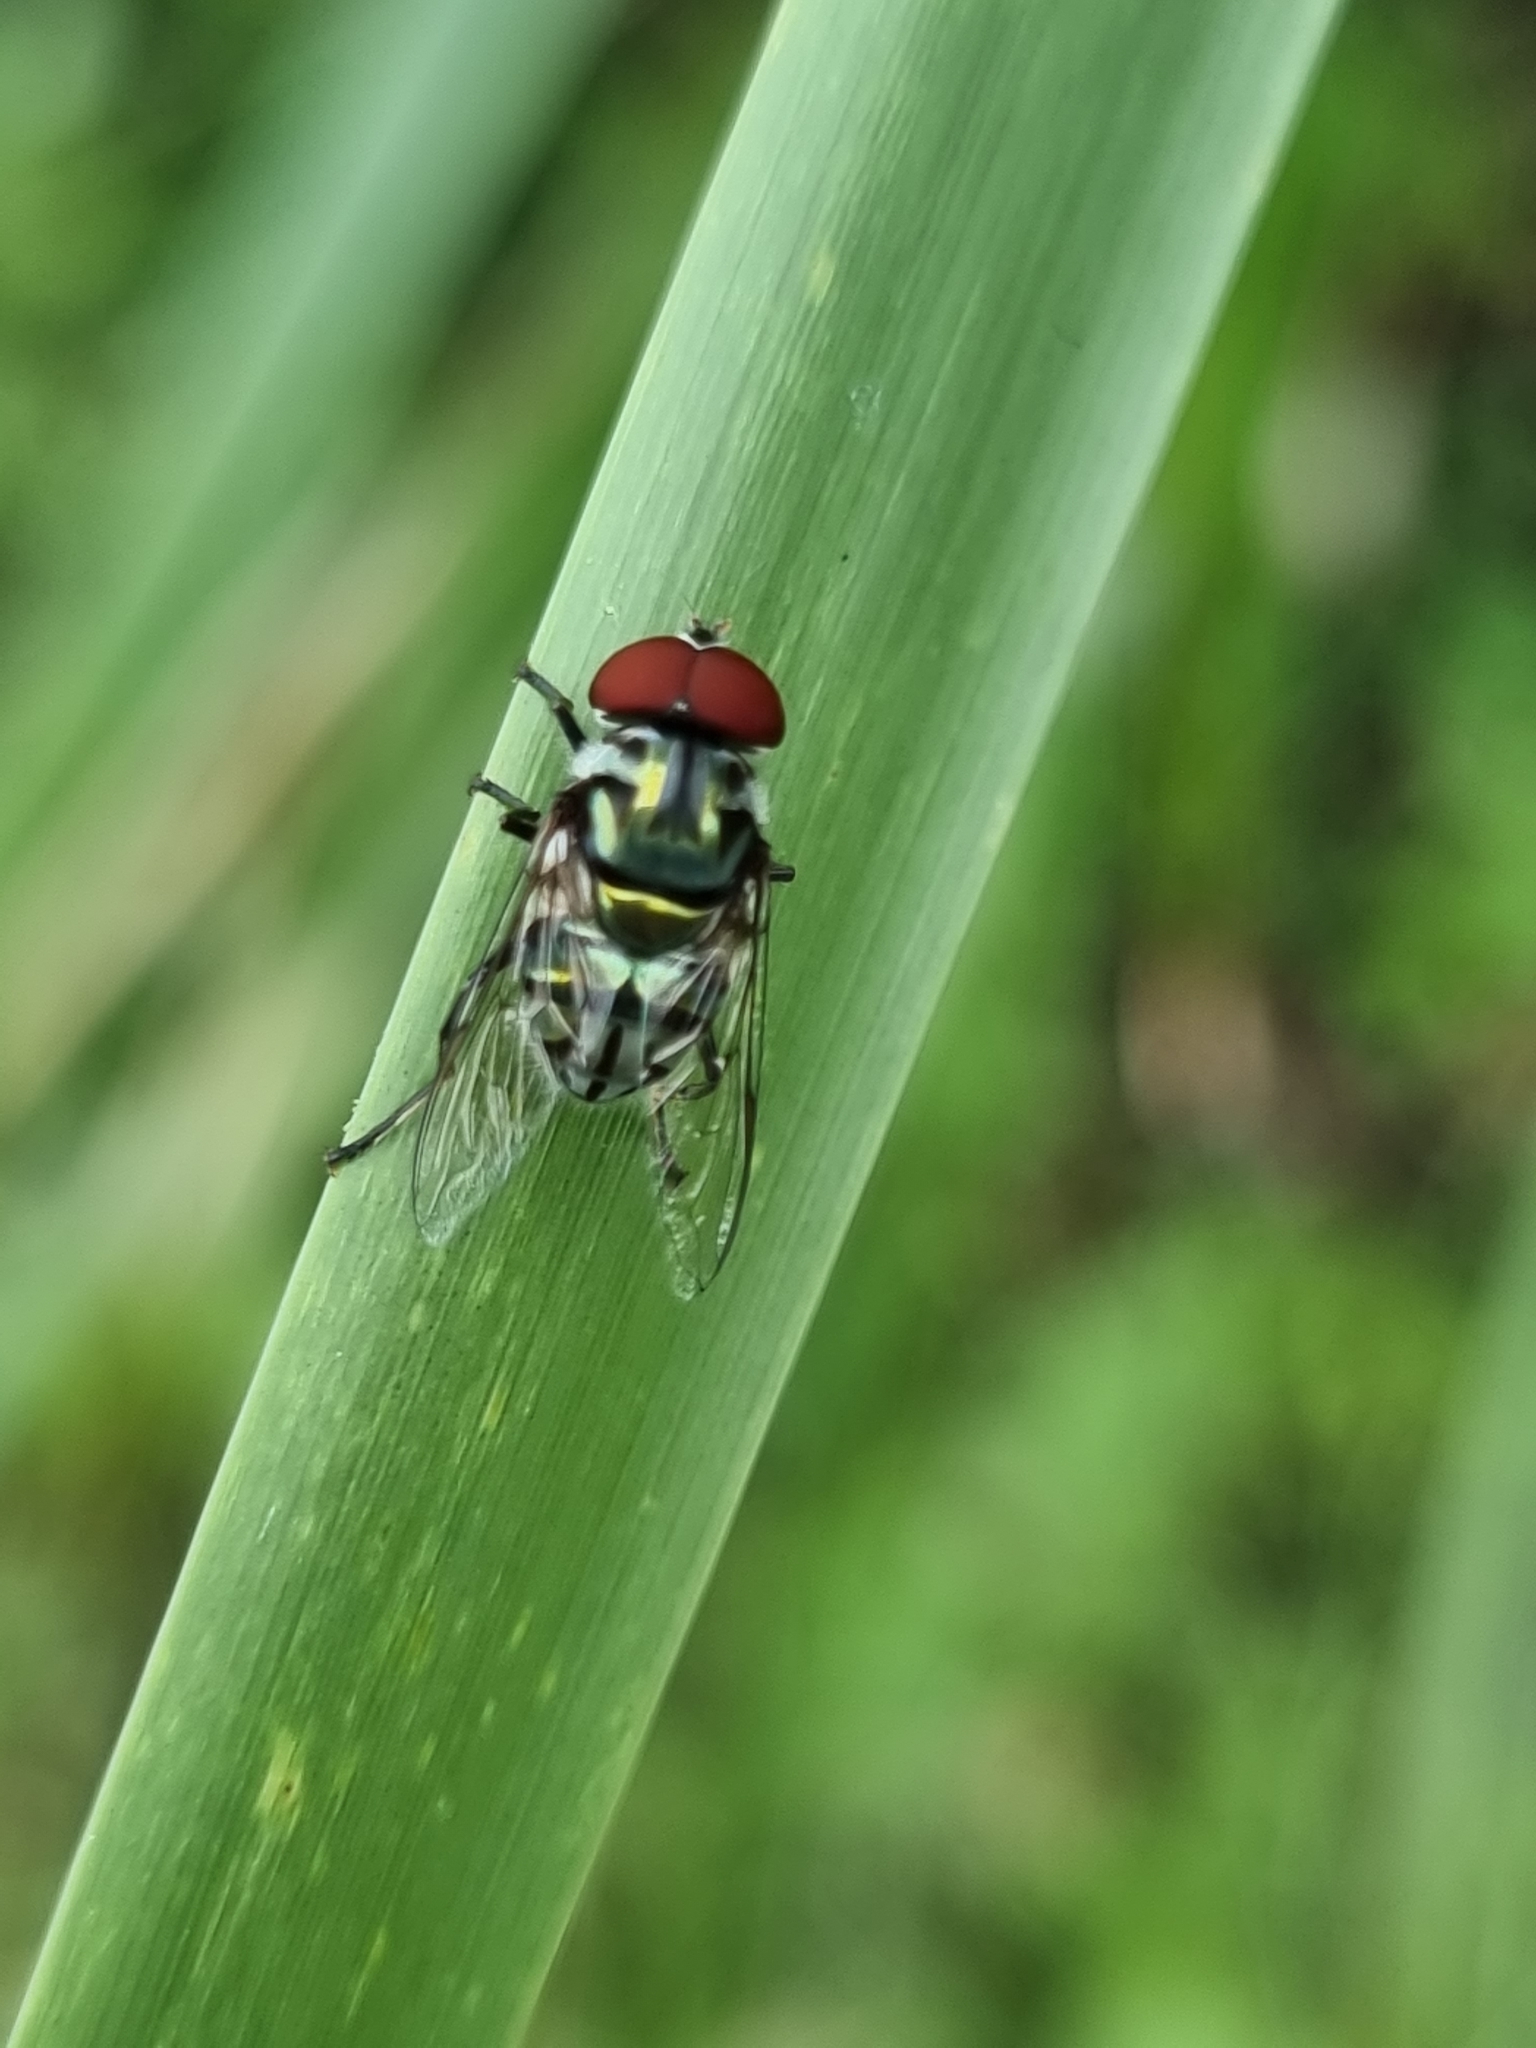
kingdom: Animalia
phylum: Arthropoda
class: Insecta
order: Diptera
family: Syrphidae
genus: Austalis
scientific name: Austalis muscoides
